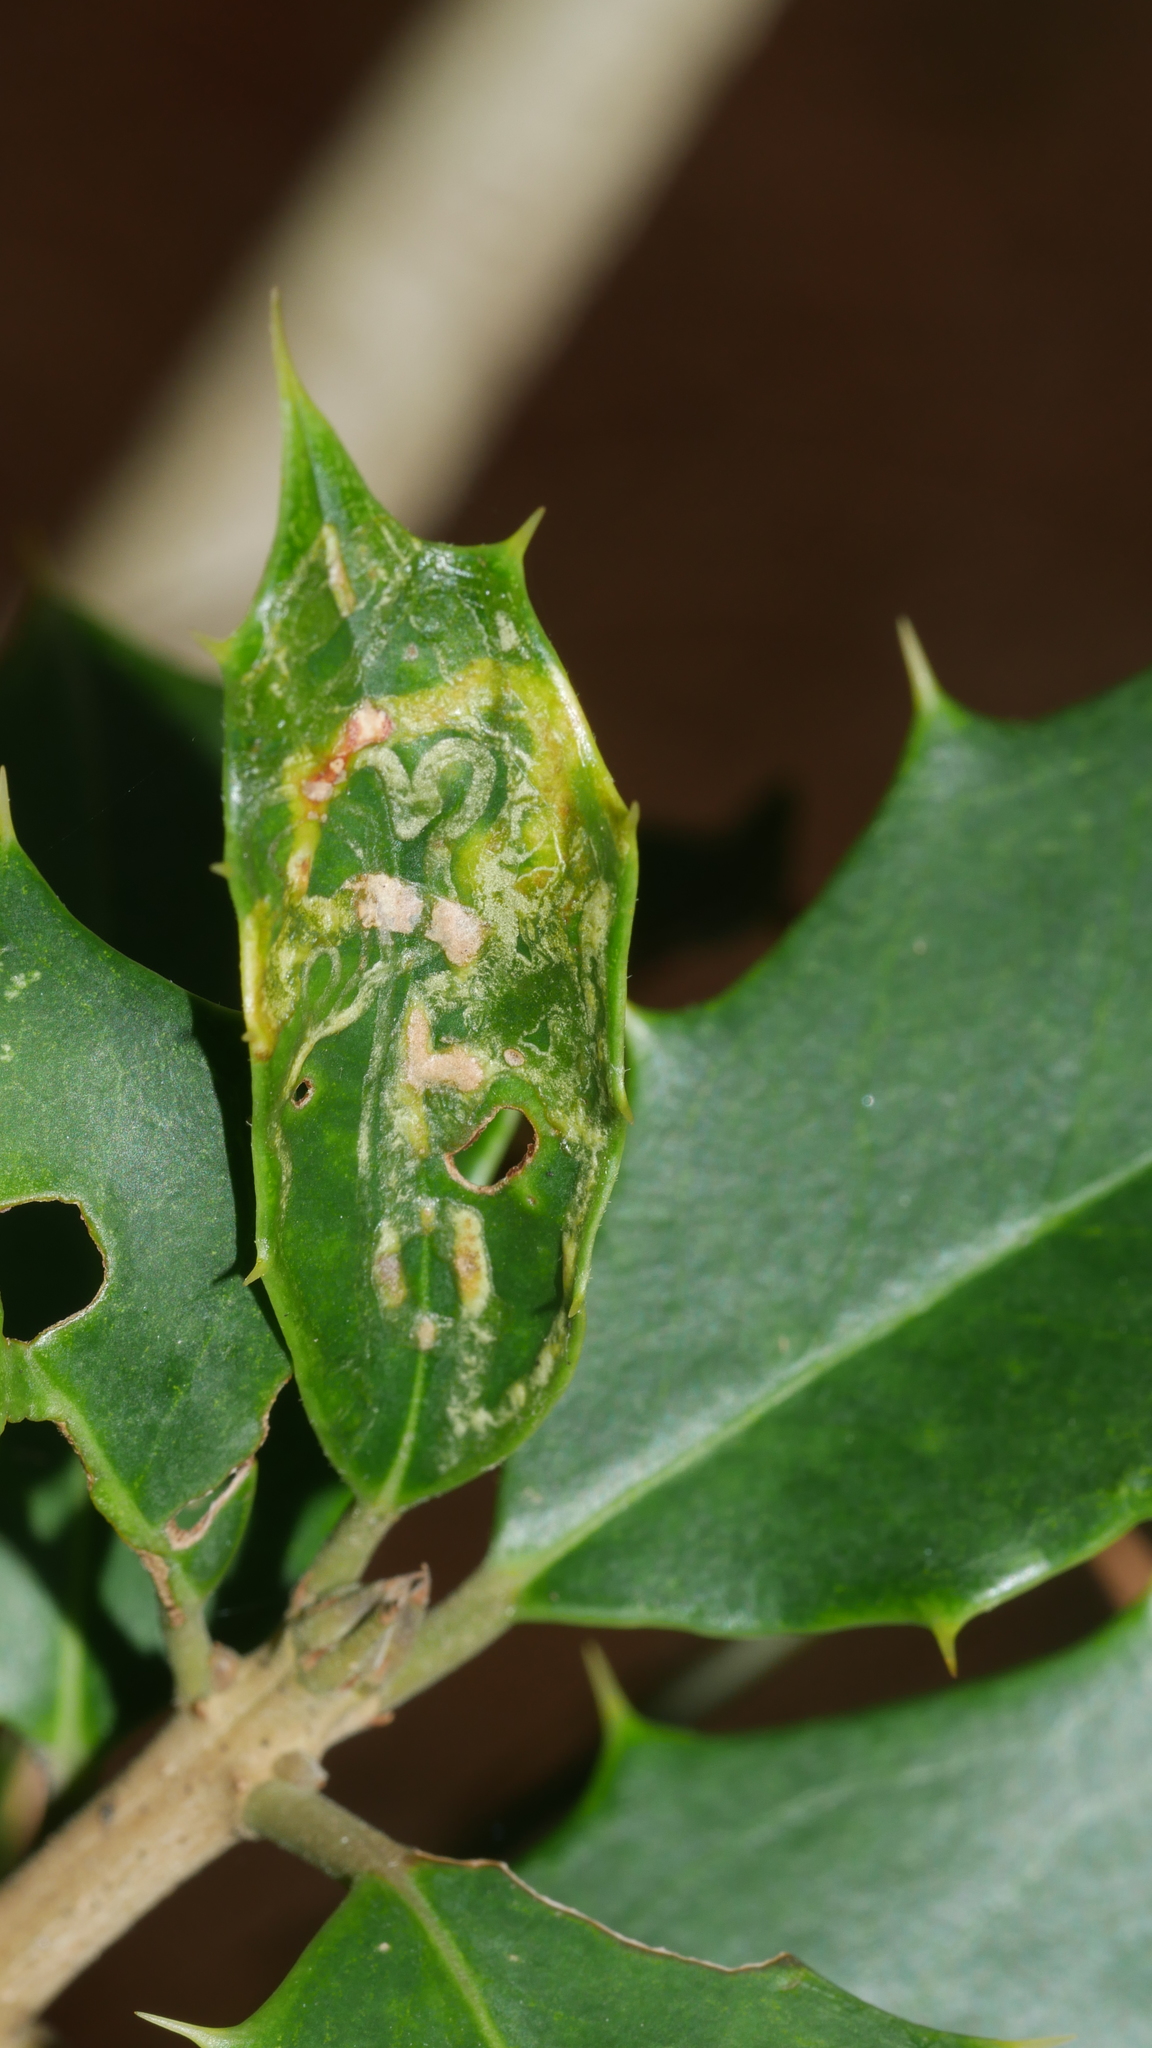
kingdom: Animalia
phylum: Arthropoda
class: Insecta
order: Diptera
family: Agromyzidae
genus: Phytomyza
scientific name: Phytomyza opacae
